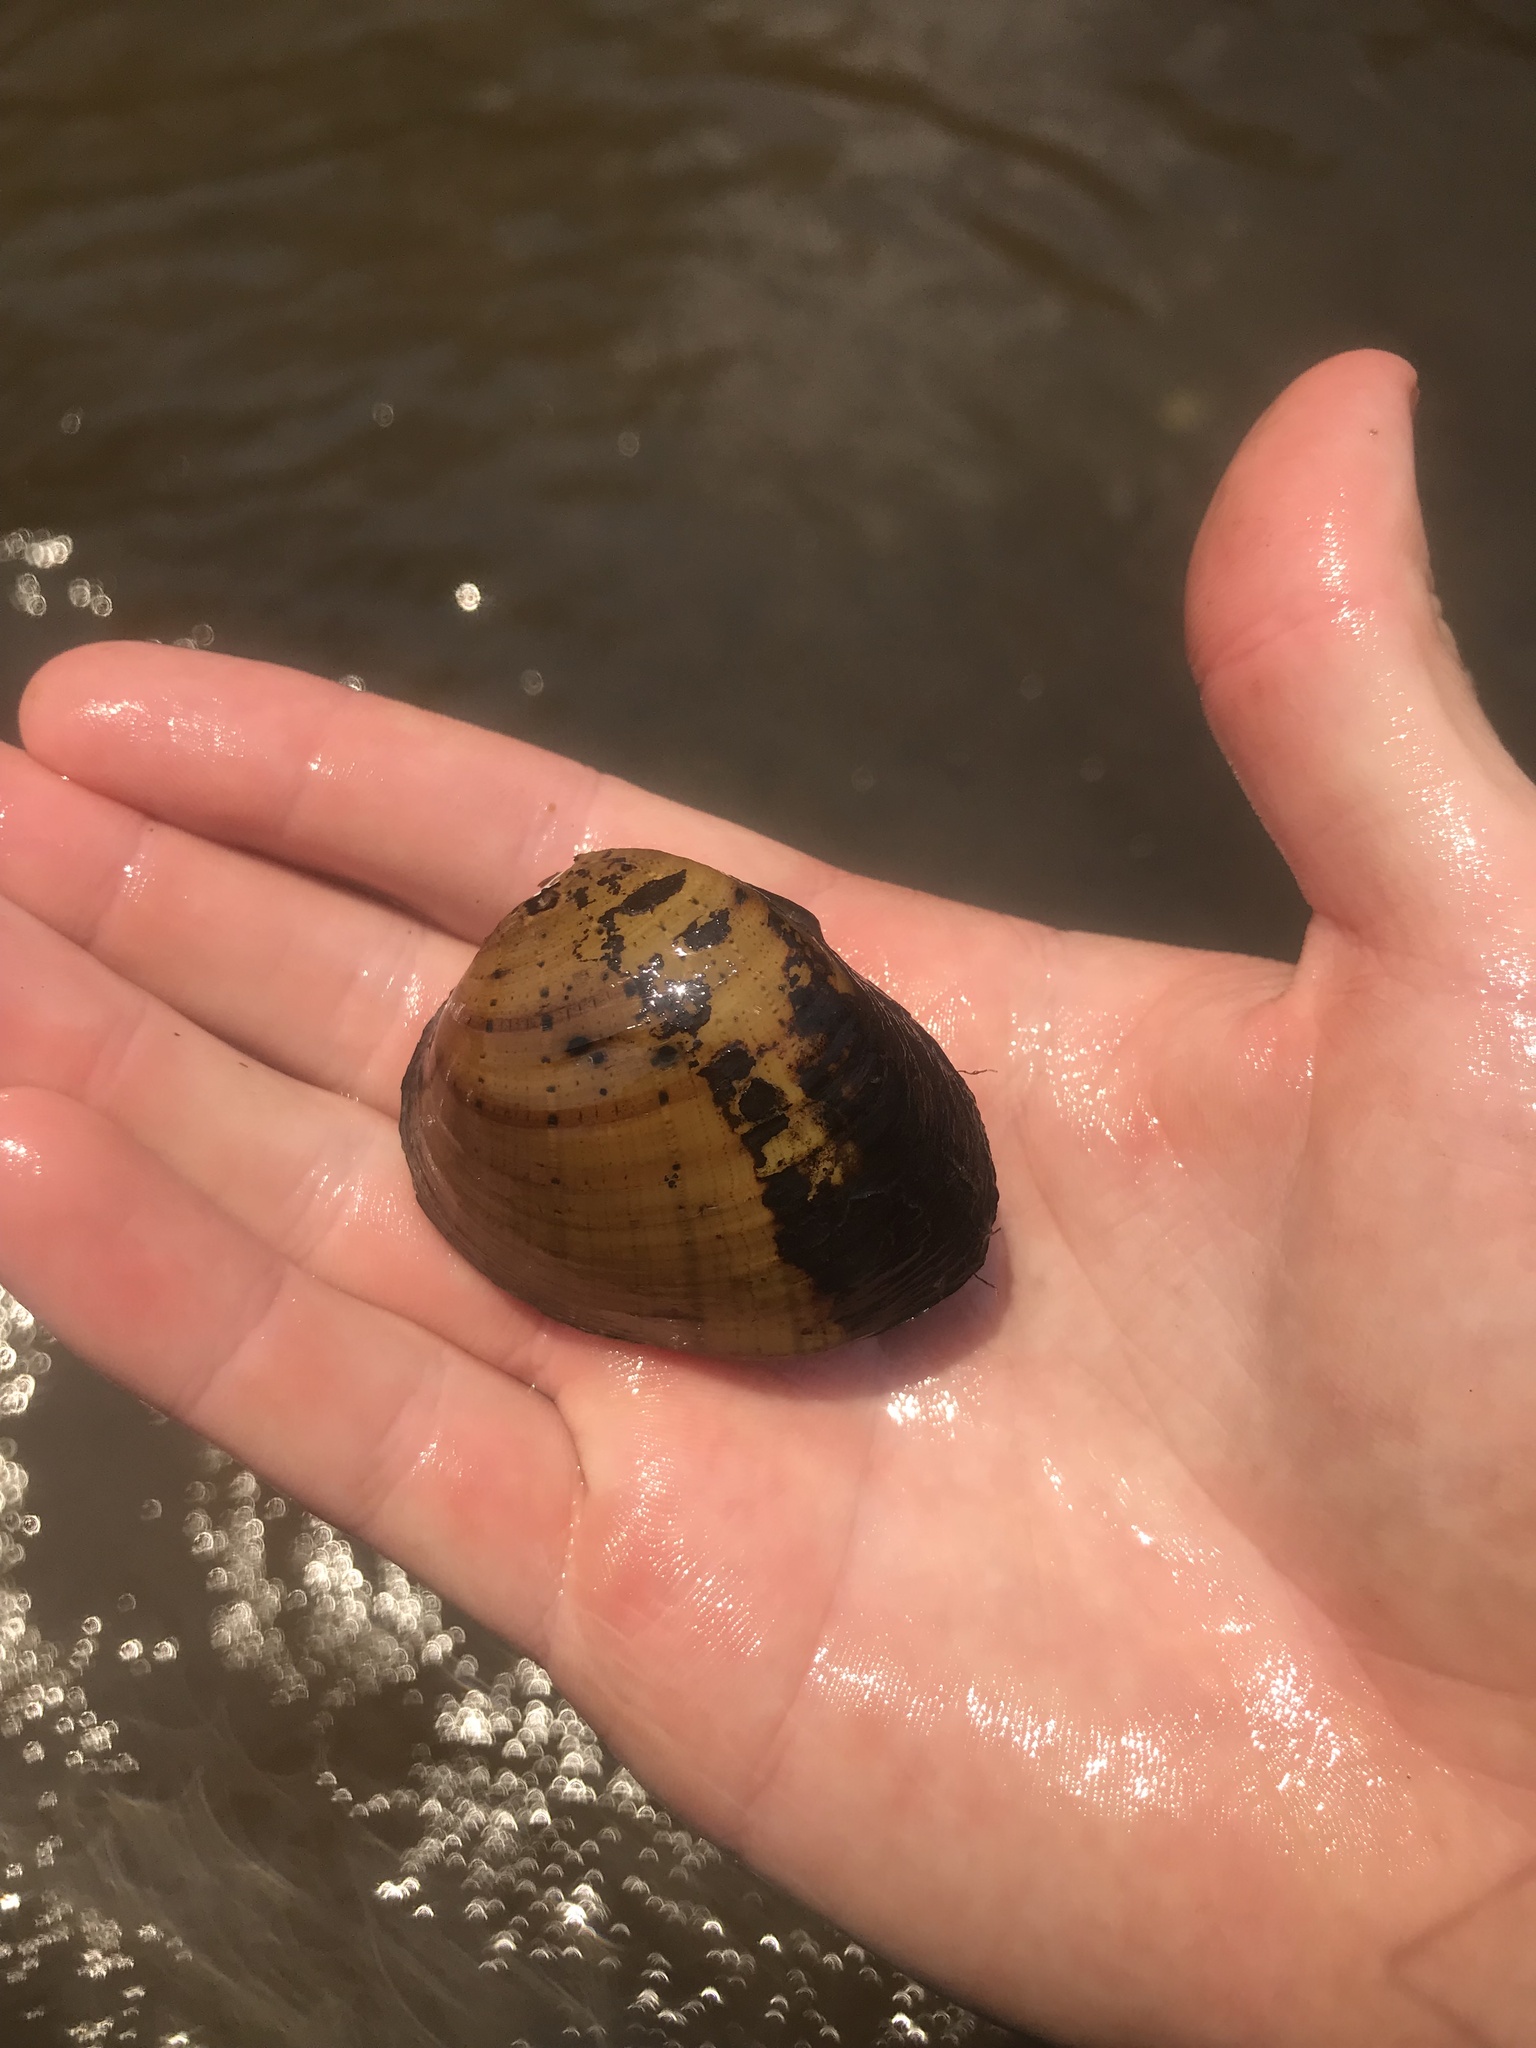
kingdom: Animalia
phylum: Mollusca
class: Bivalvia
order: Unionida
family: Unionidae
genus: Ellipsaria
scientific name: Ellipsaria lineolata
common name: Butterfly
